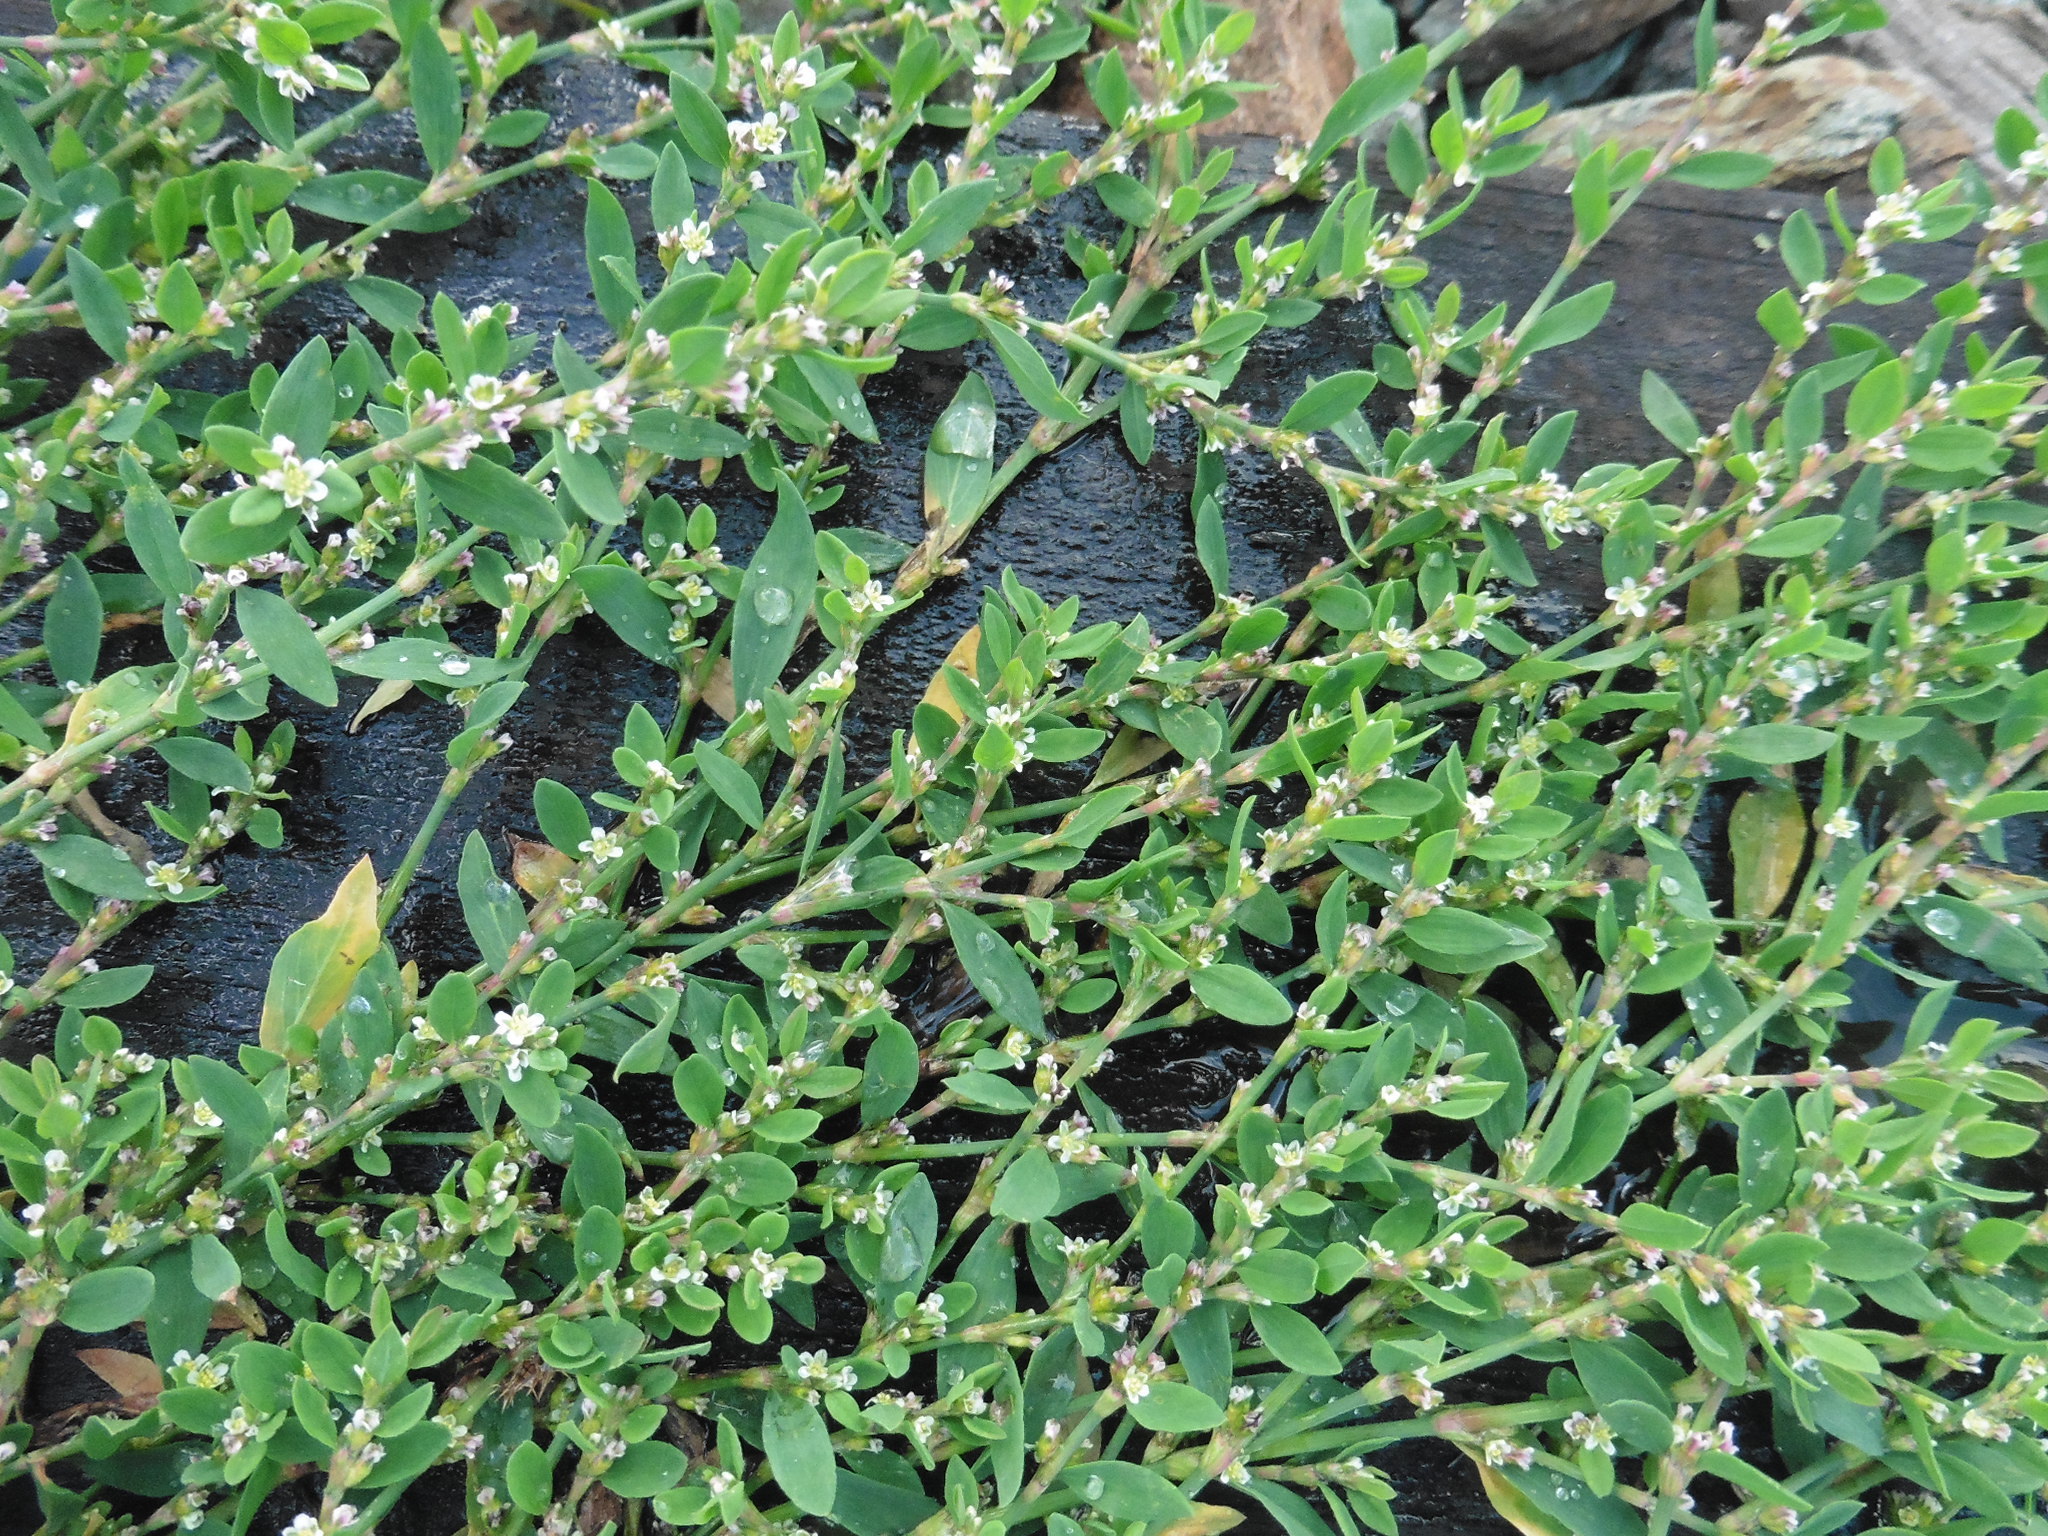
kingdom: Plantae
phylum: Tracheophyta
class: Magnoliopsida
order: Caryophyllales
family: Polygonaceae
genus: Polygonum
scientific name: Polygonum
